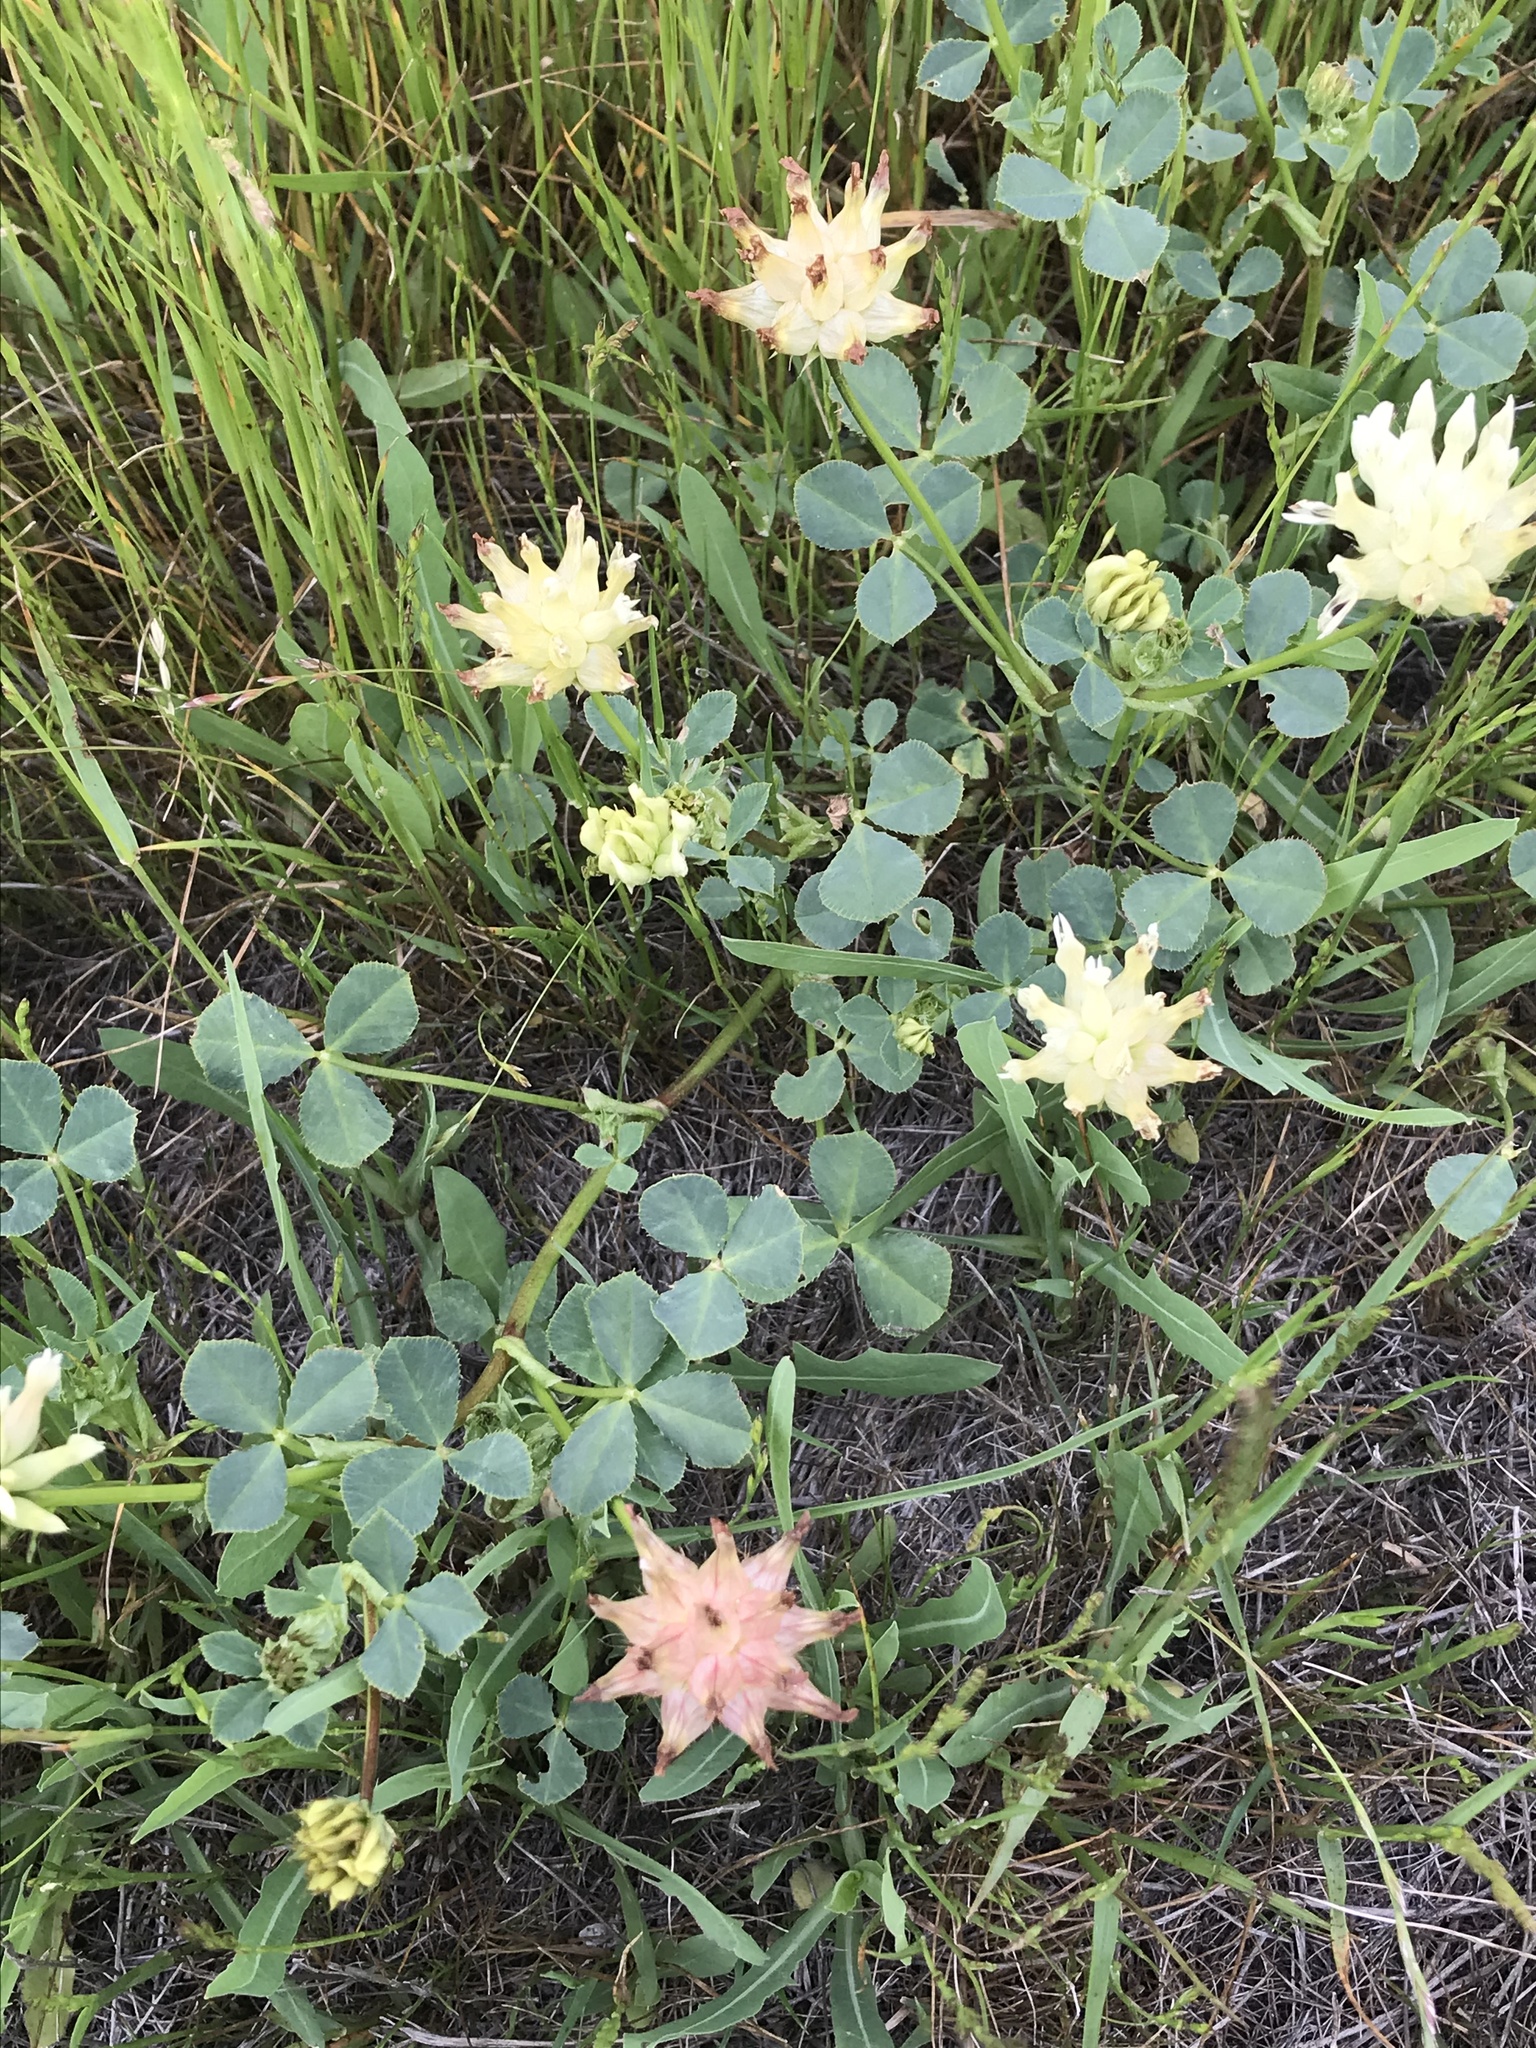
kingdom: Plantae
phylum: Tracheophyta
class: Magnoliopsida
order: Fabales
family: Fabaceae
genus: Trifolium
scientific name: Trifolium fucatum
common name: Puff clover
